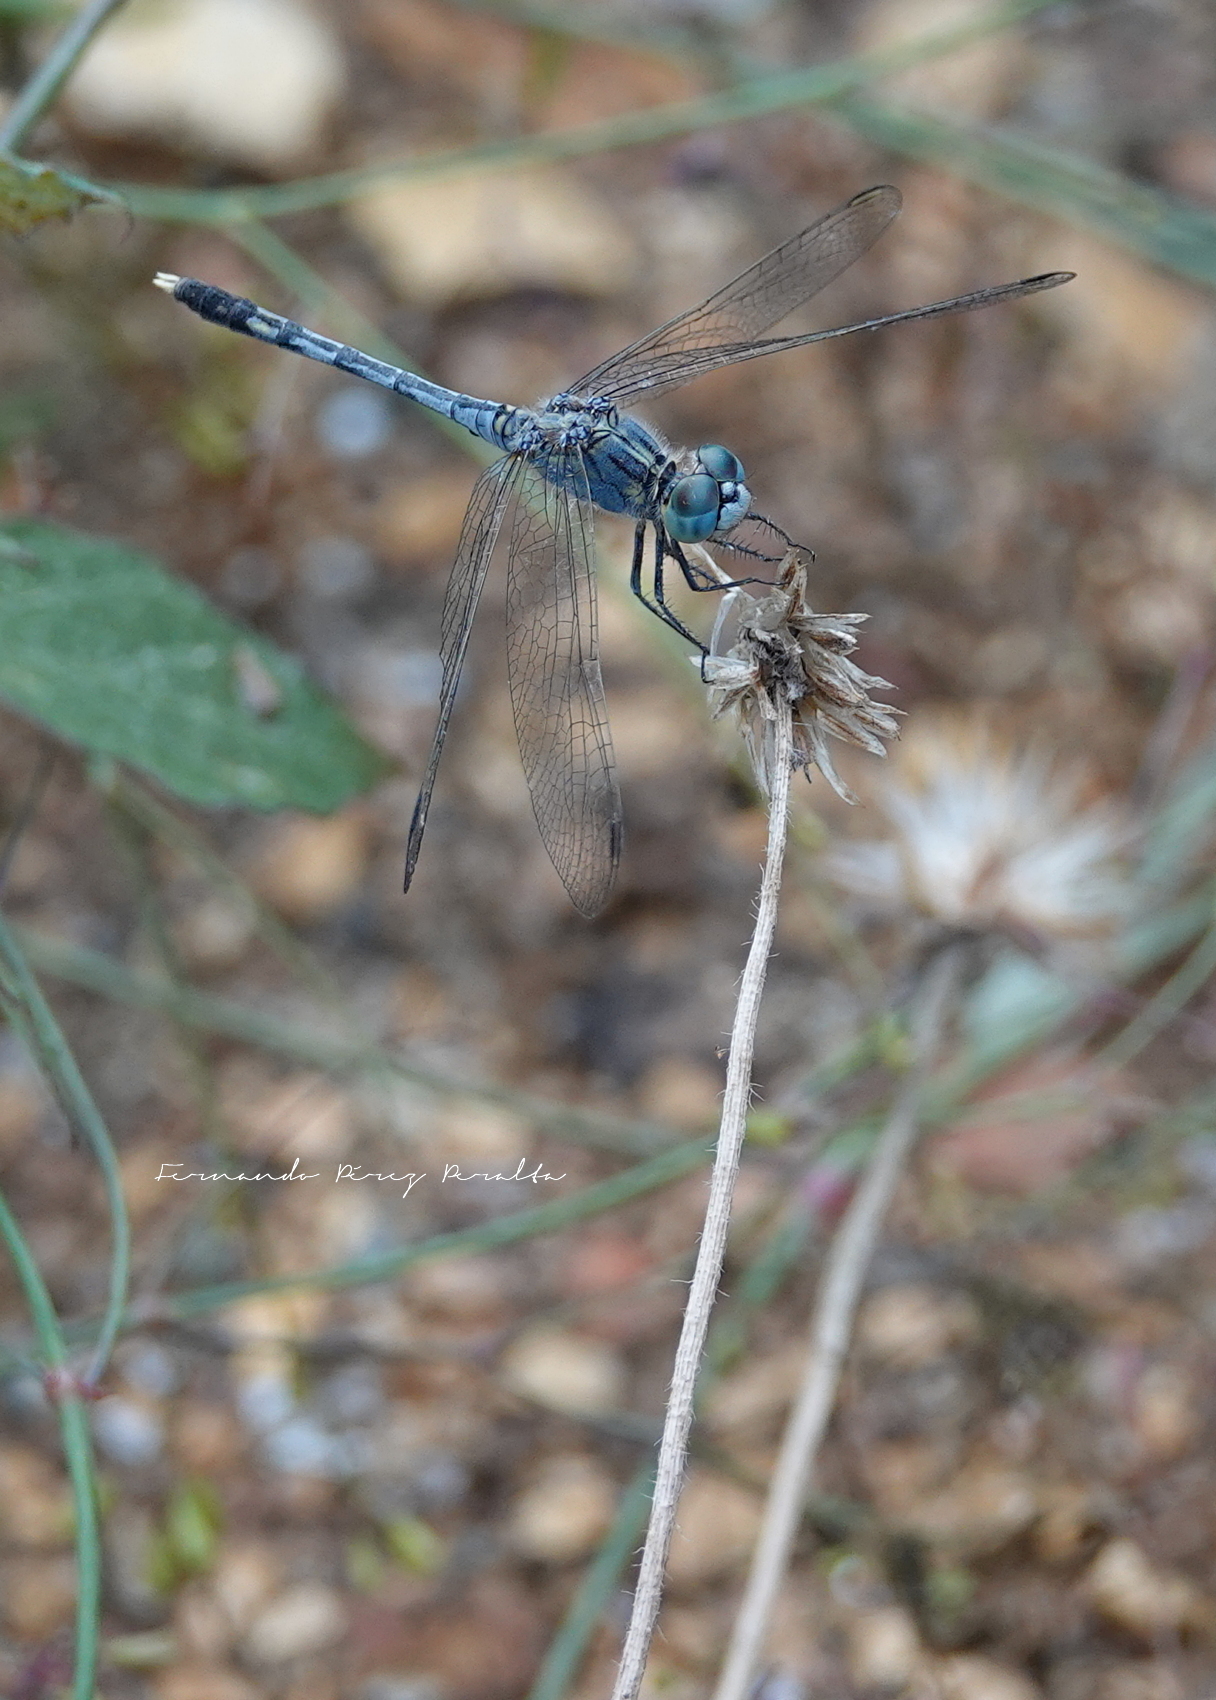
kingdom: Animalia
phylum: Arthropoda
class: Insecta
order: Odonata
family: Libellulidae
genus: Diplacodes
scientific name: Diplacodes trivialis
